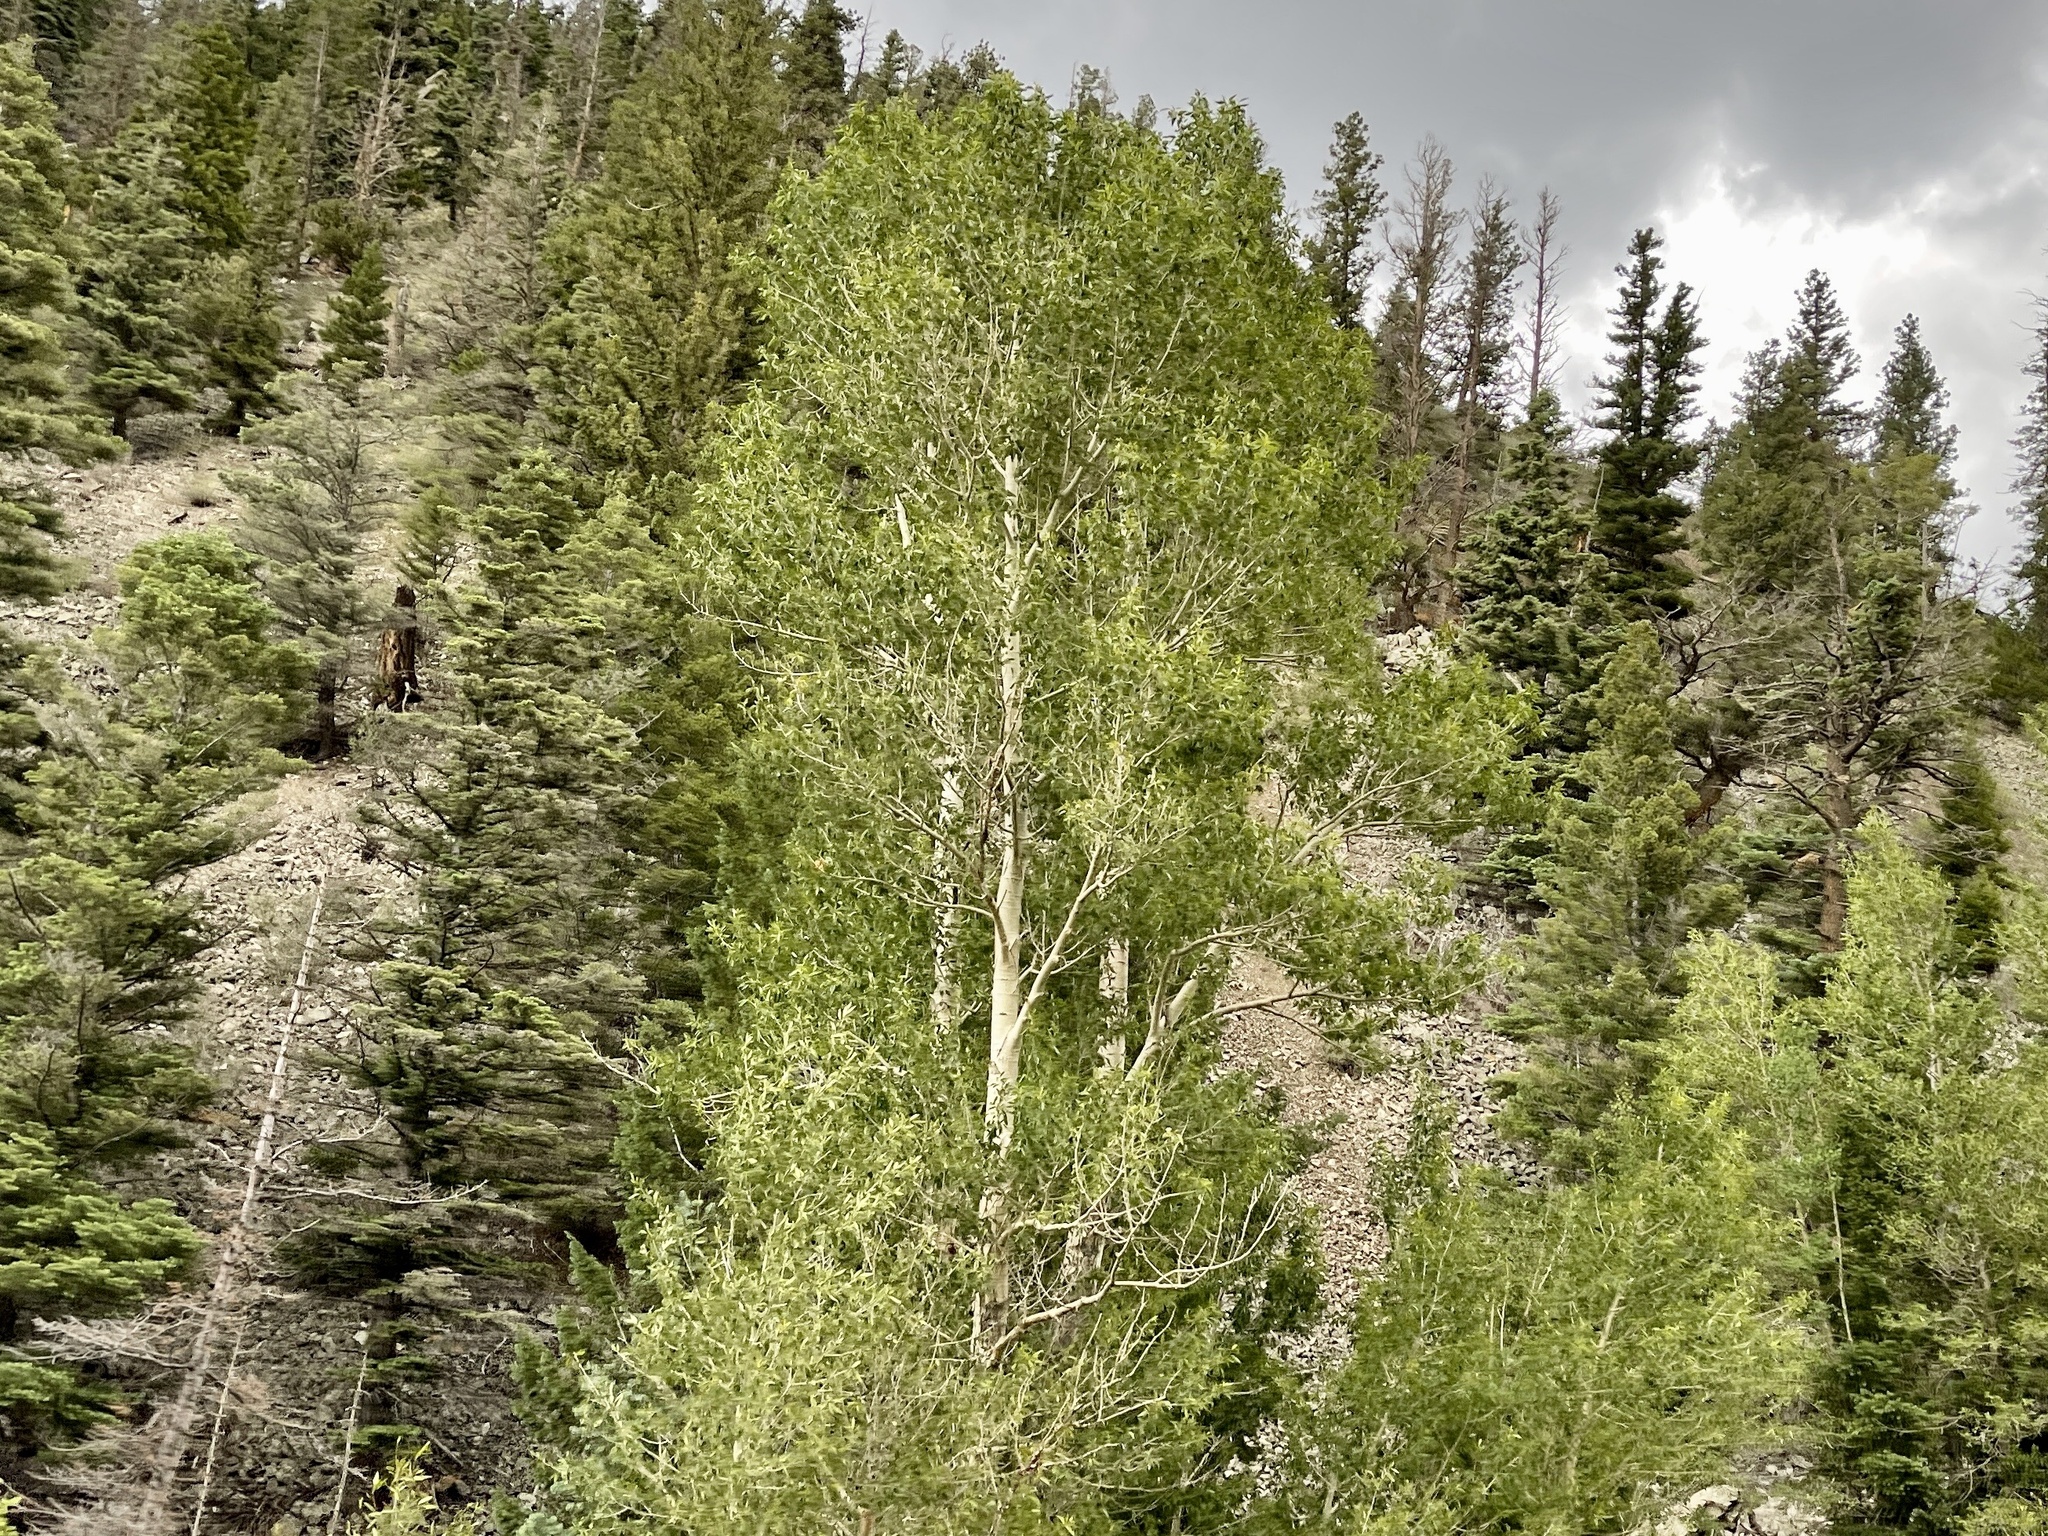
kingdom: Plantae
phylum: Tracheophyta
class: Magnoliopsida
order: Malpighiales
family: Salicaceae
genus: Populus
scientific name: Populus tremuloides
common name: Quaking aspen
